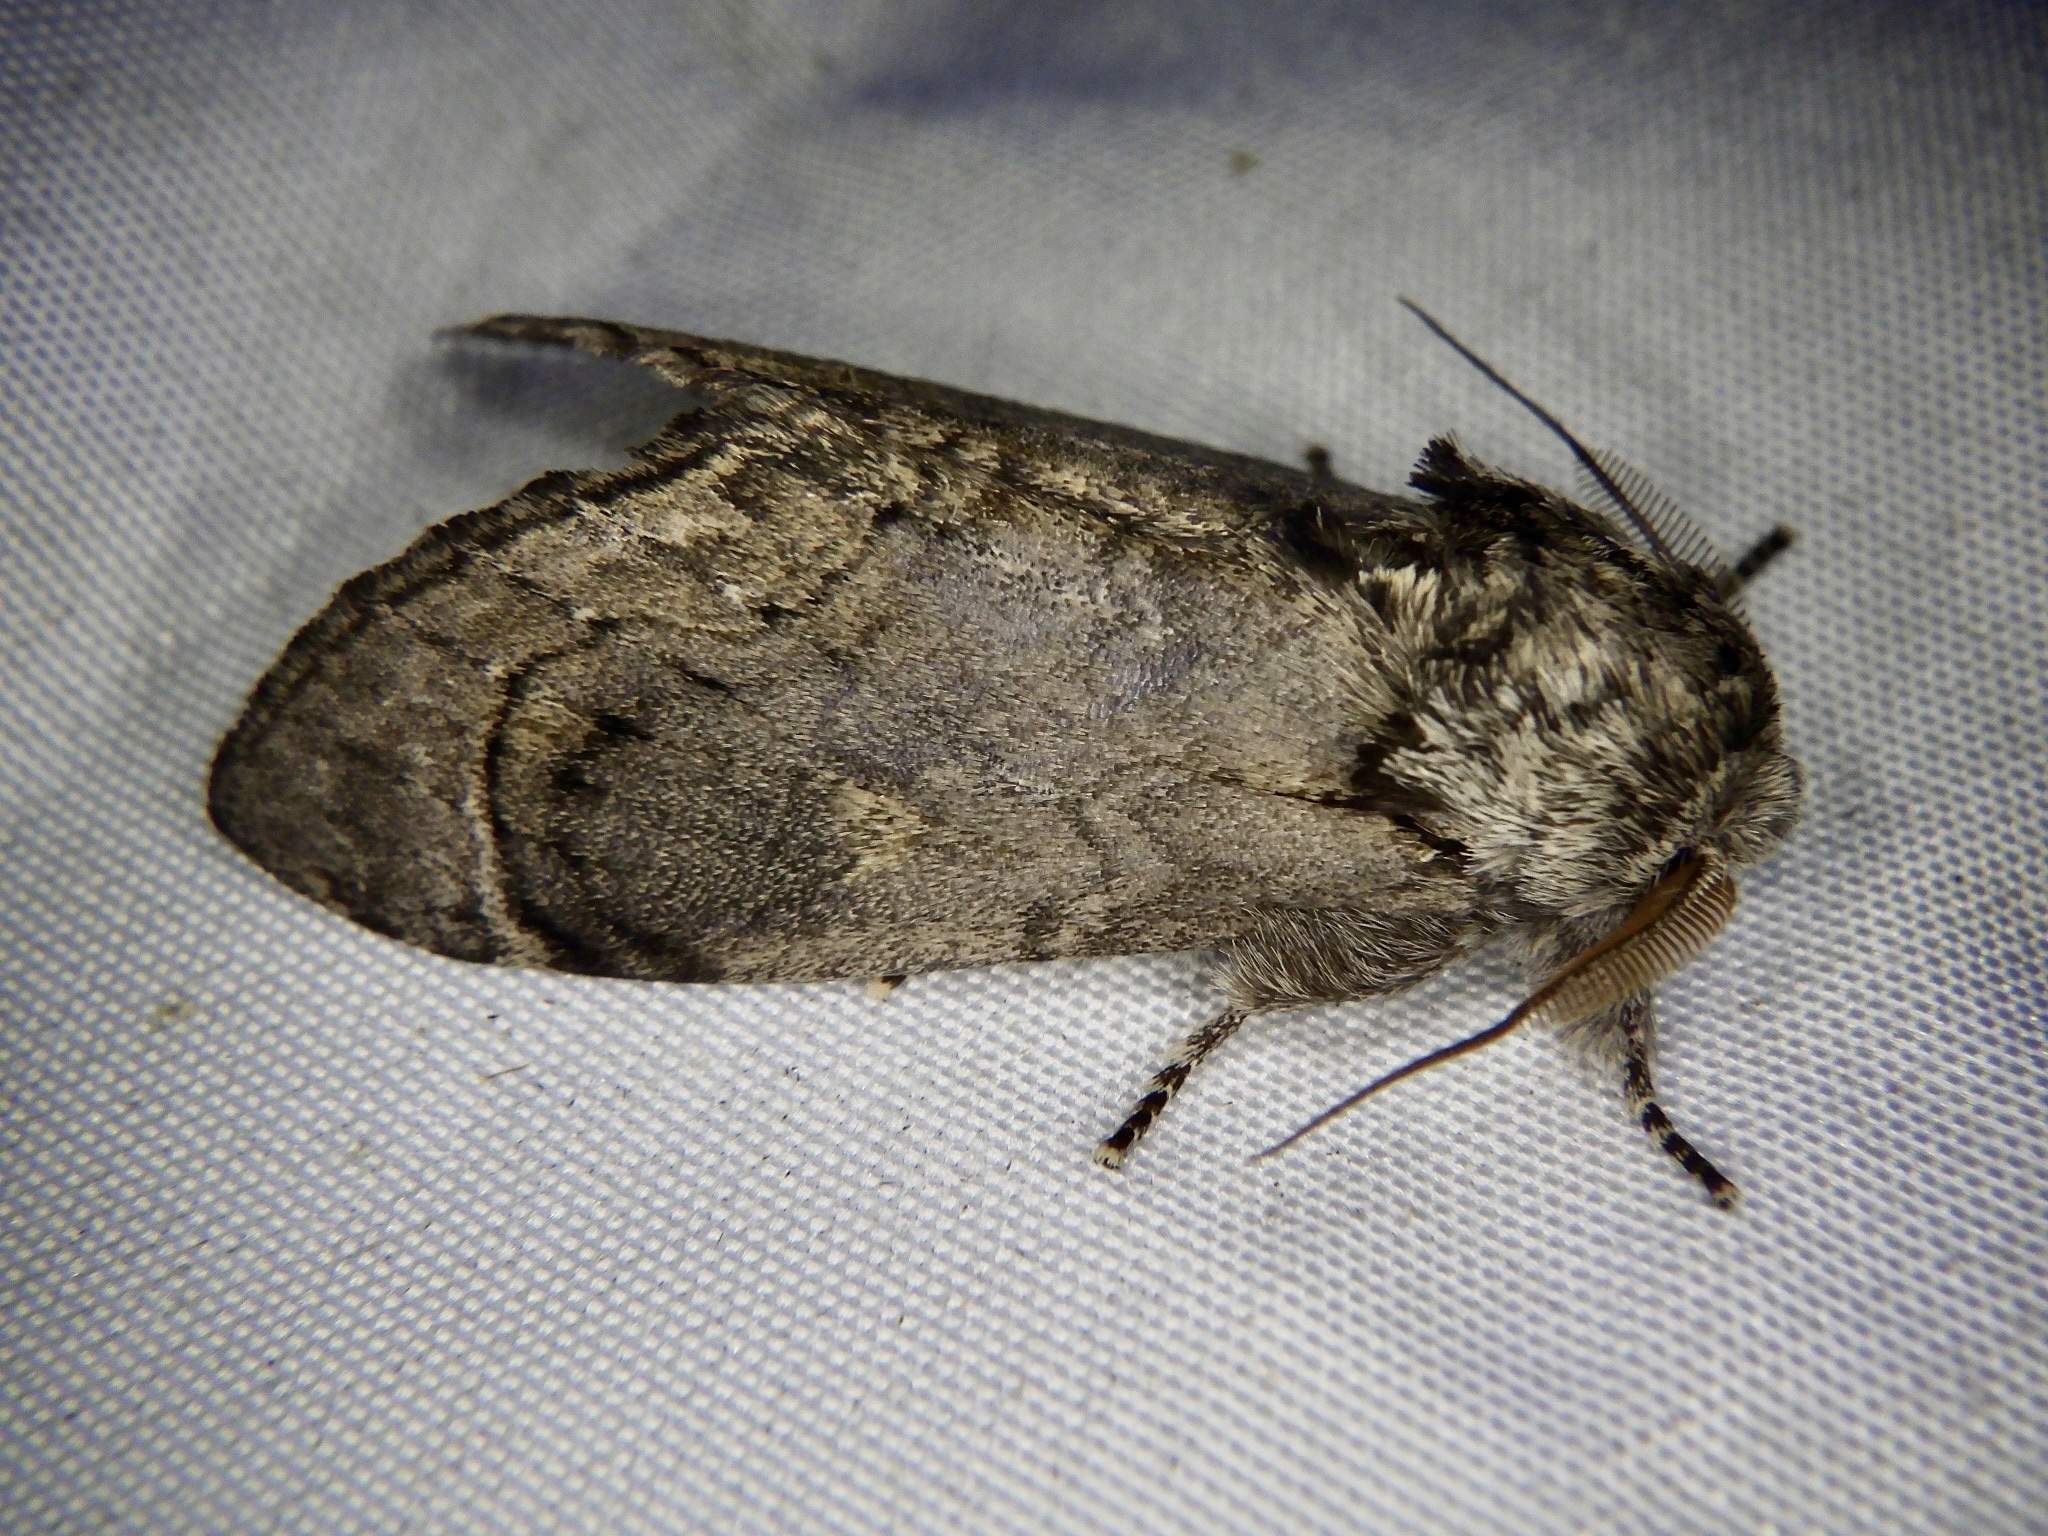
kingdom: Animalia
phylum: Arthropoda
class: Insecta
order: Lepidoptera
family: Notodontidae
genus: Fentonia
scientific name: Fentonia ocypete
